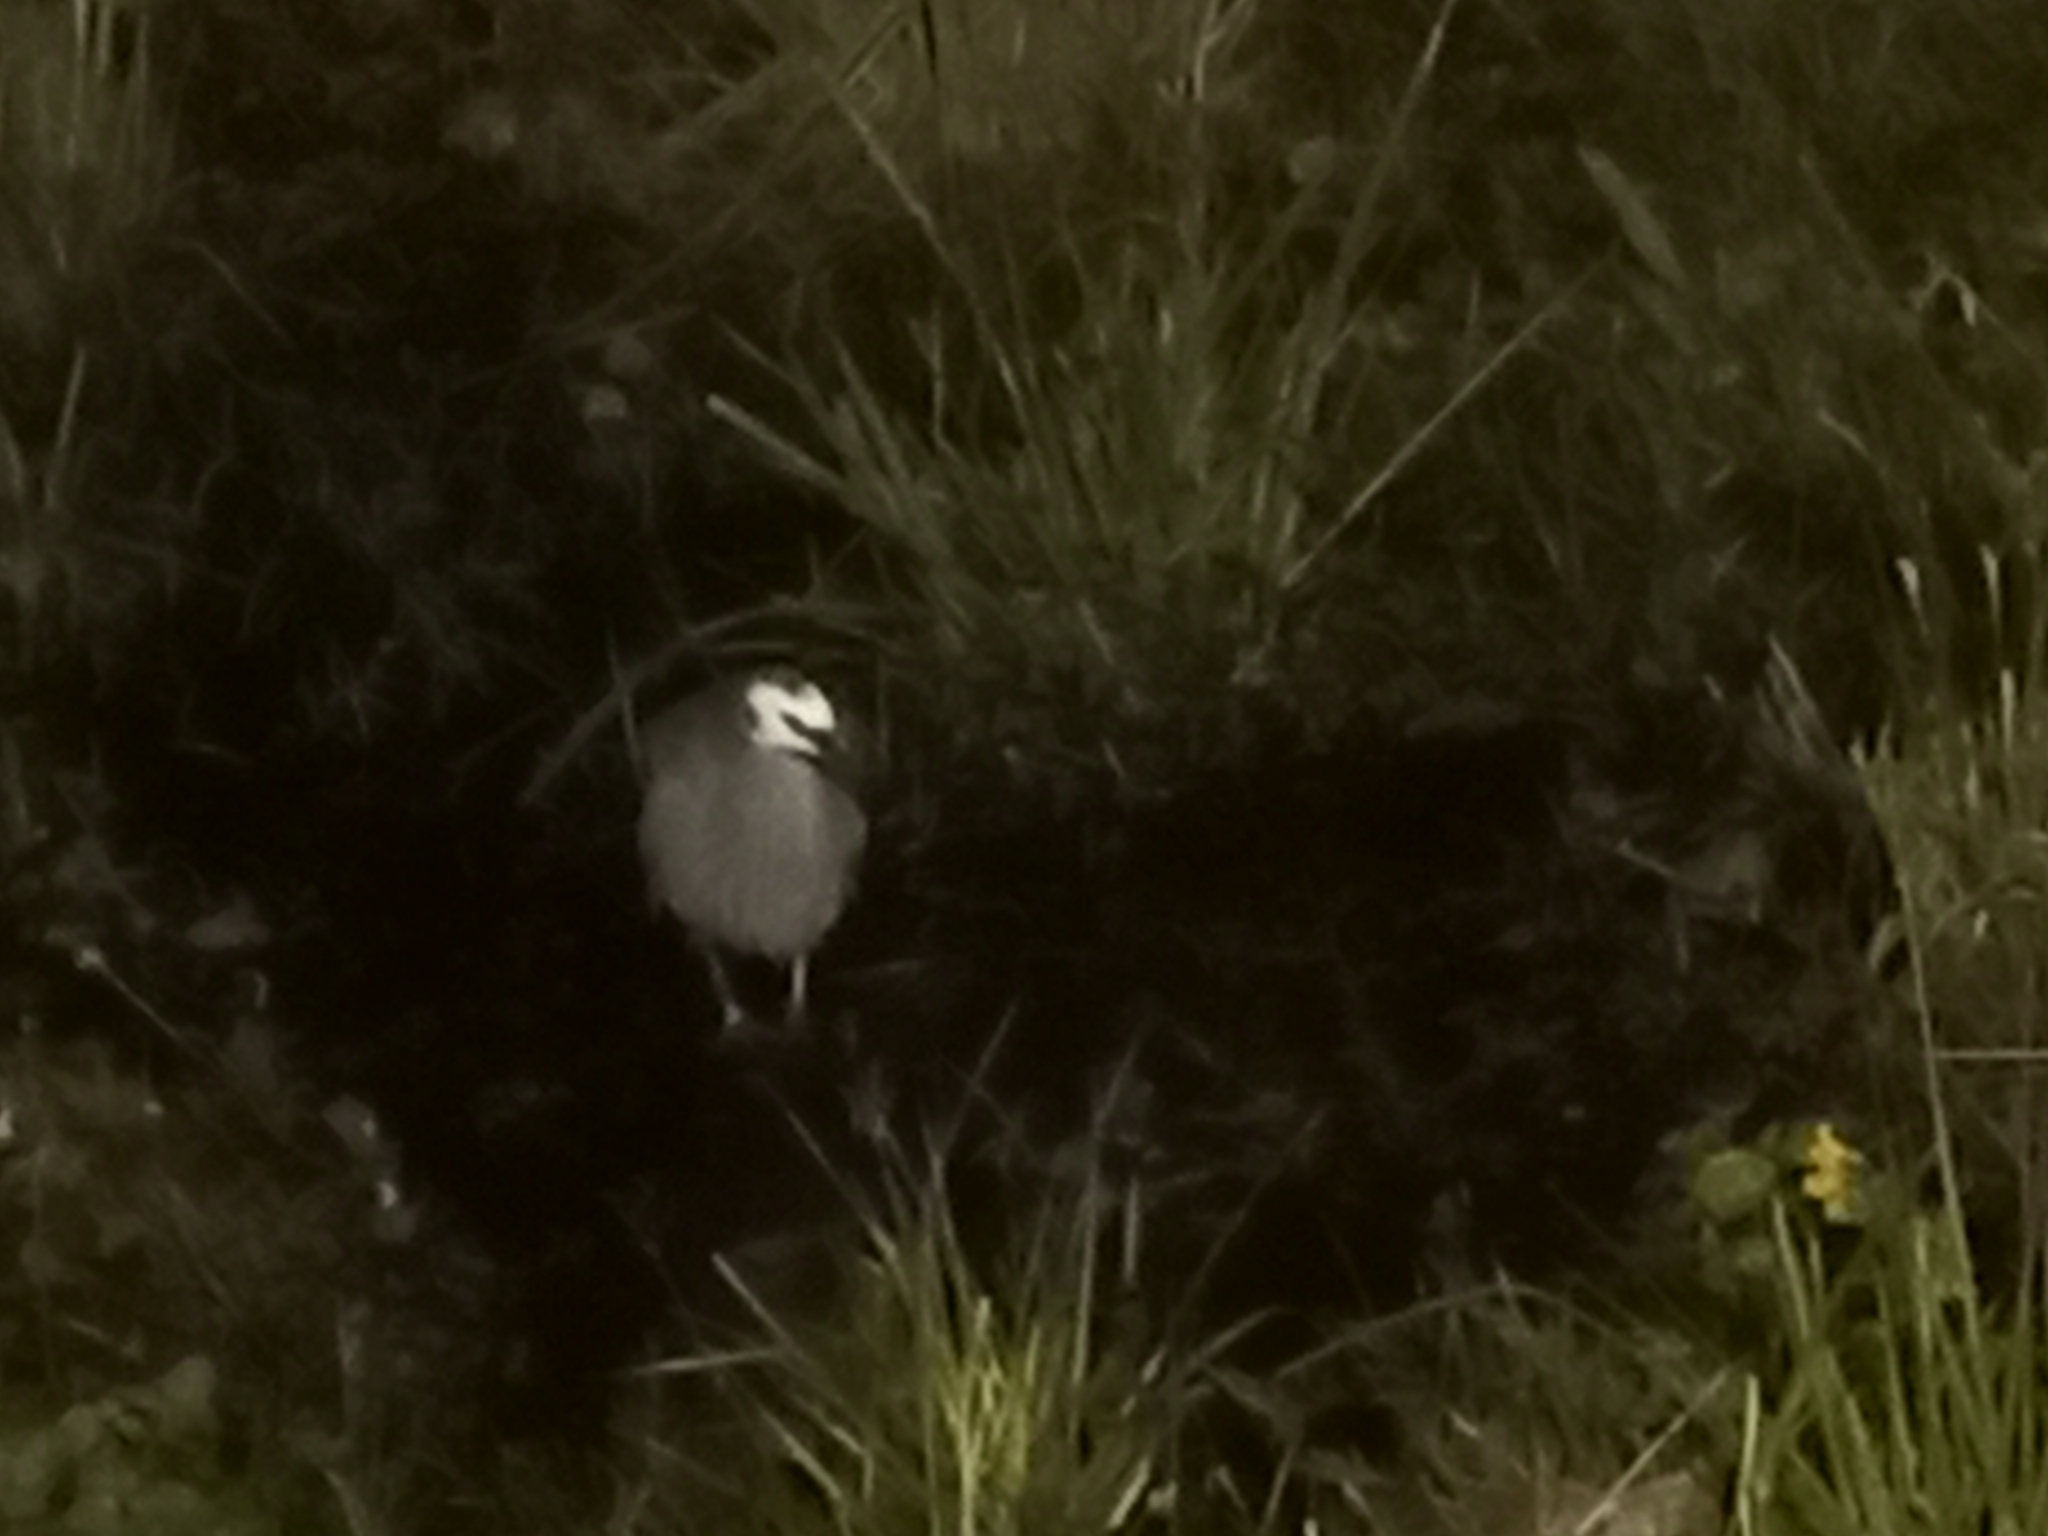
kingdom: Animalia
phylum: Chordata
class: Aves
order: Pelecaniformes
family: Ardeidae
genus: Egretta
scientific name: Egretta novaehollandiae
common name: White-faced heron
